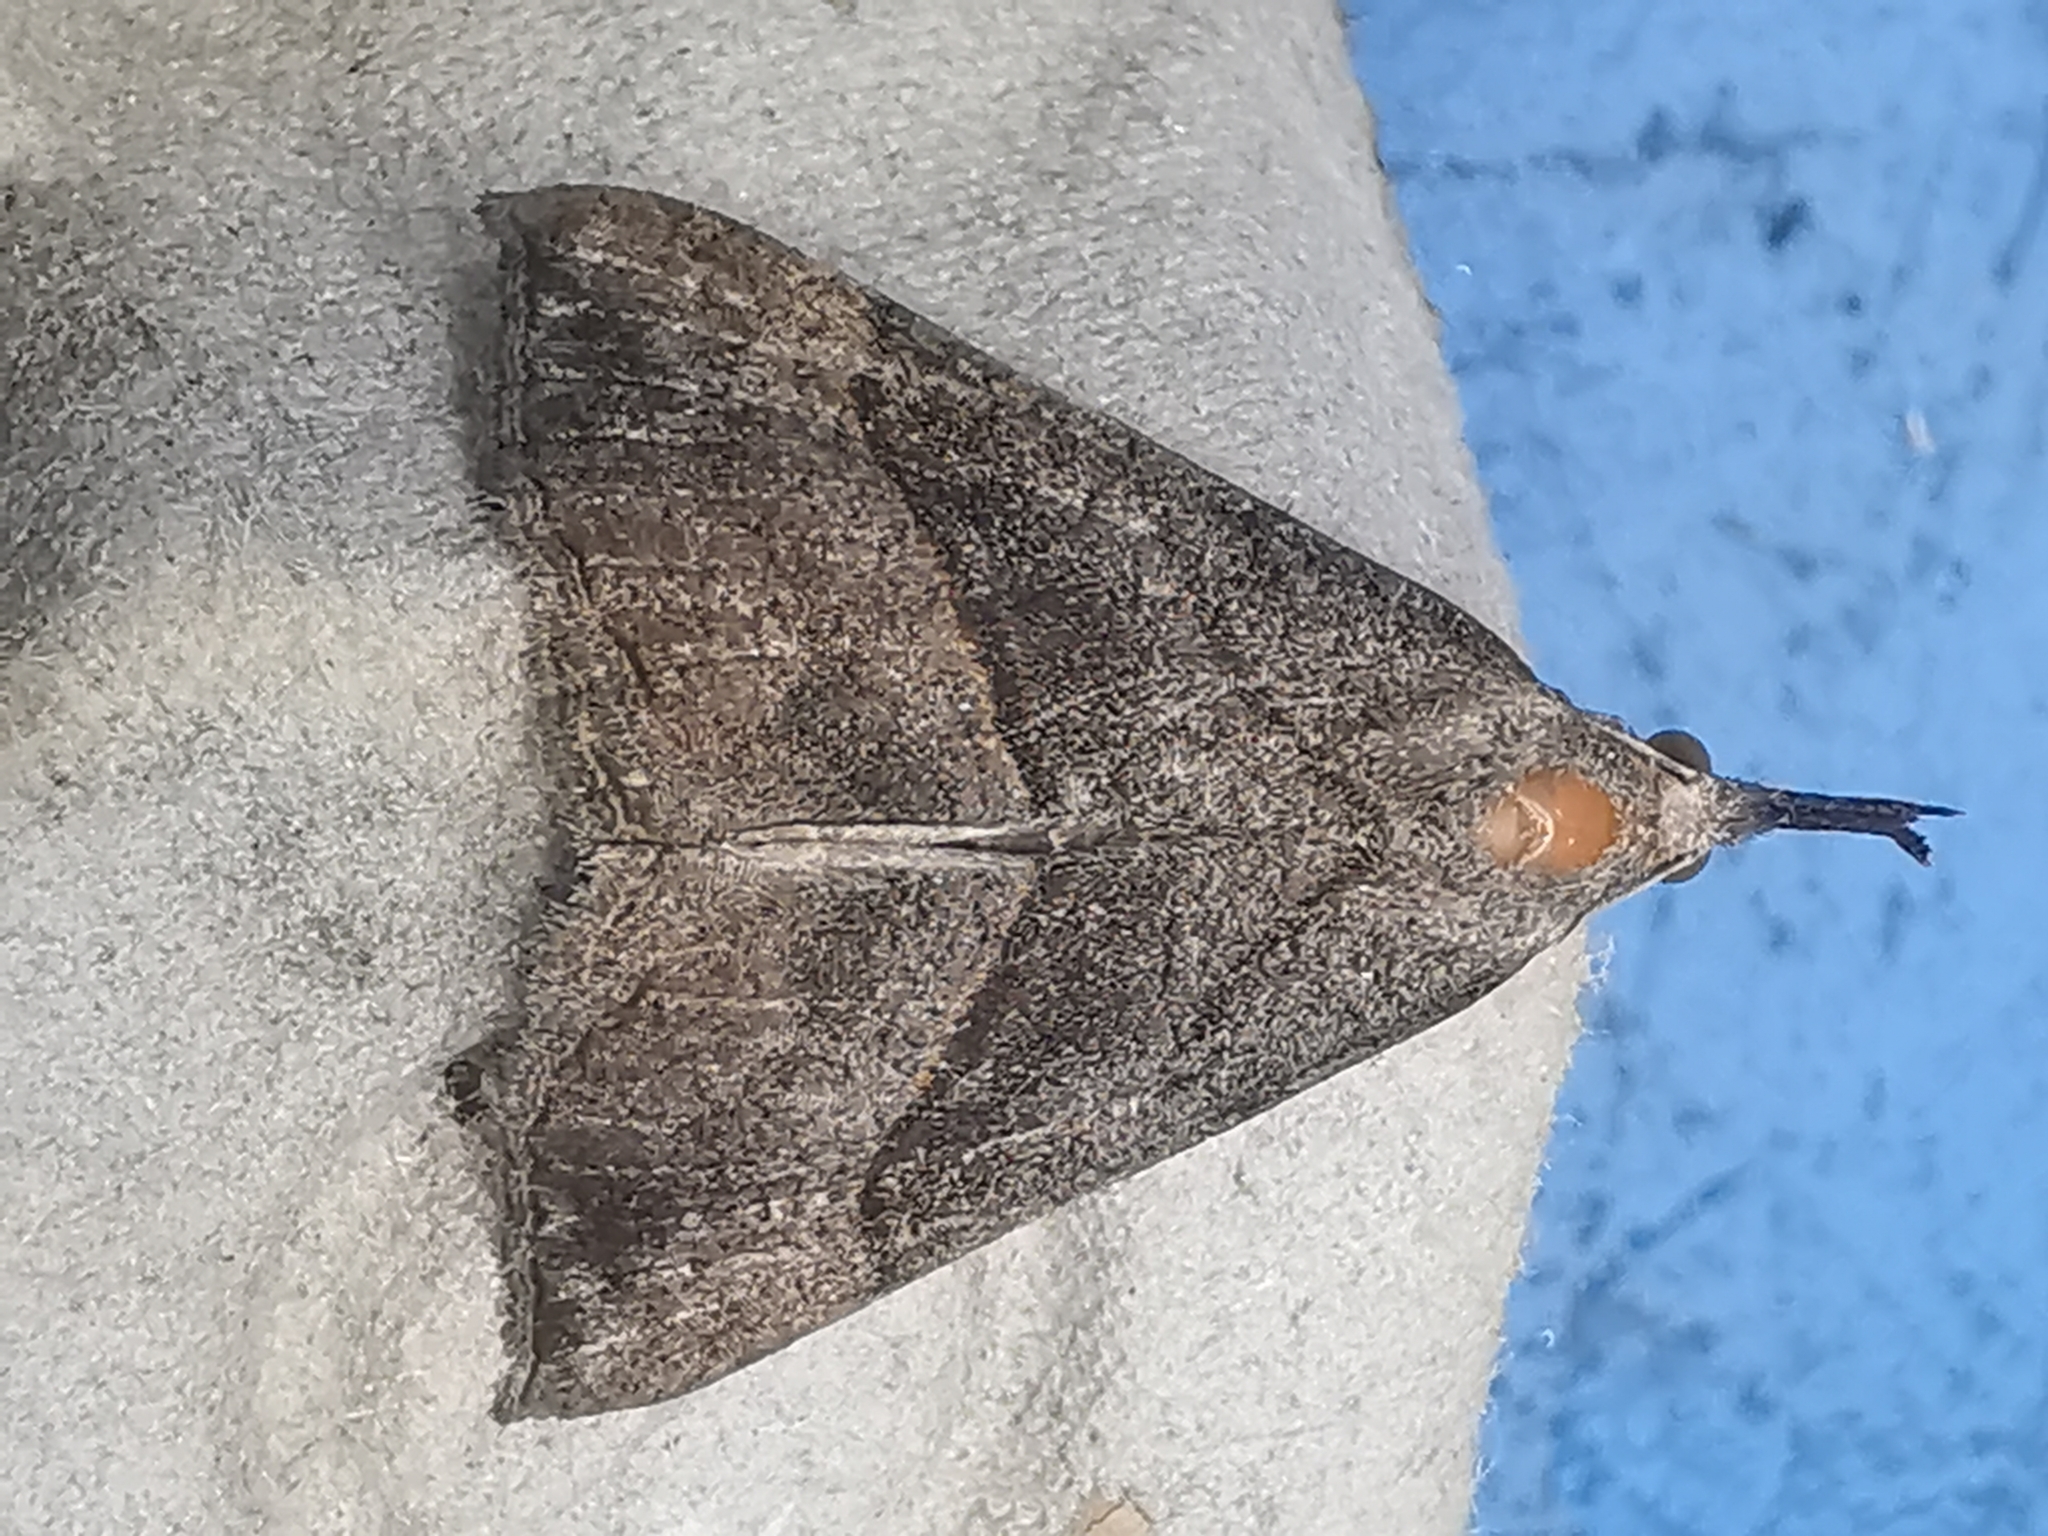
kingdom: Animalia
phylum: Arthropoda
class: Insecta
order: Lepidoptera
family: Erebidae
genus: Hypena
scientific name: Hypena proboscidalis
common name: Snout
